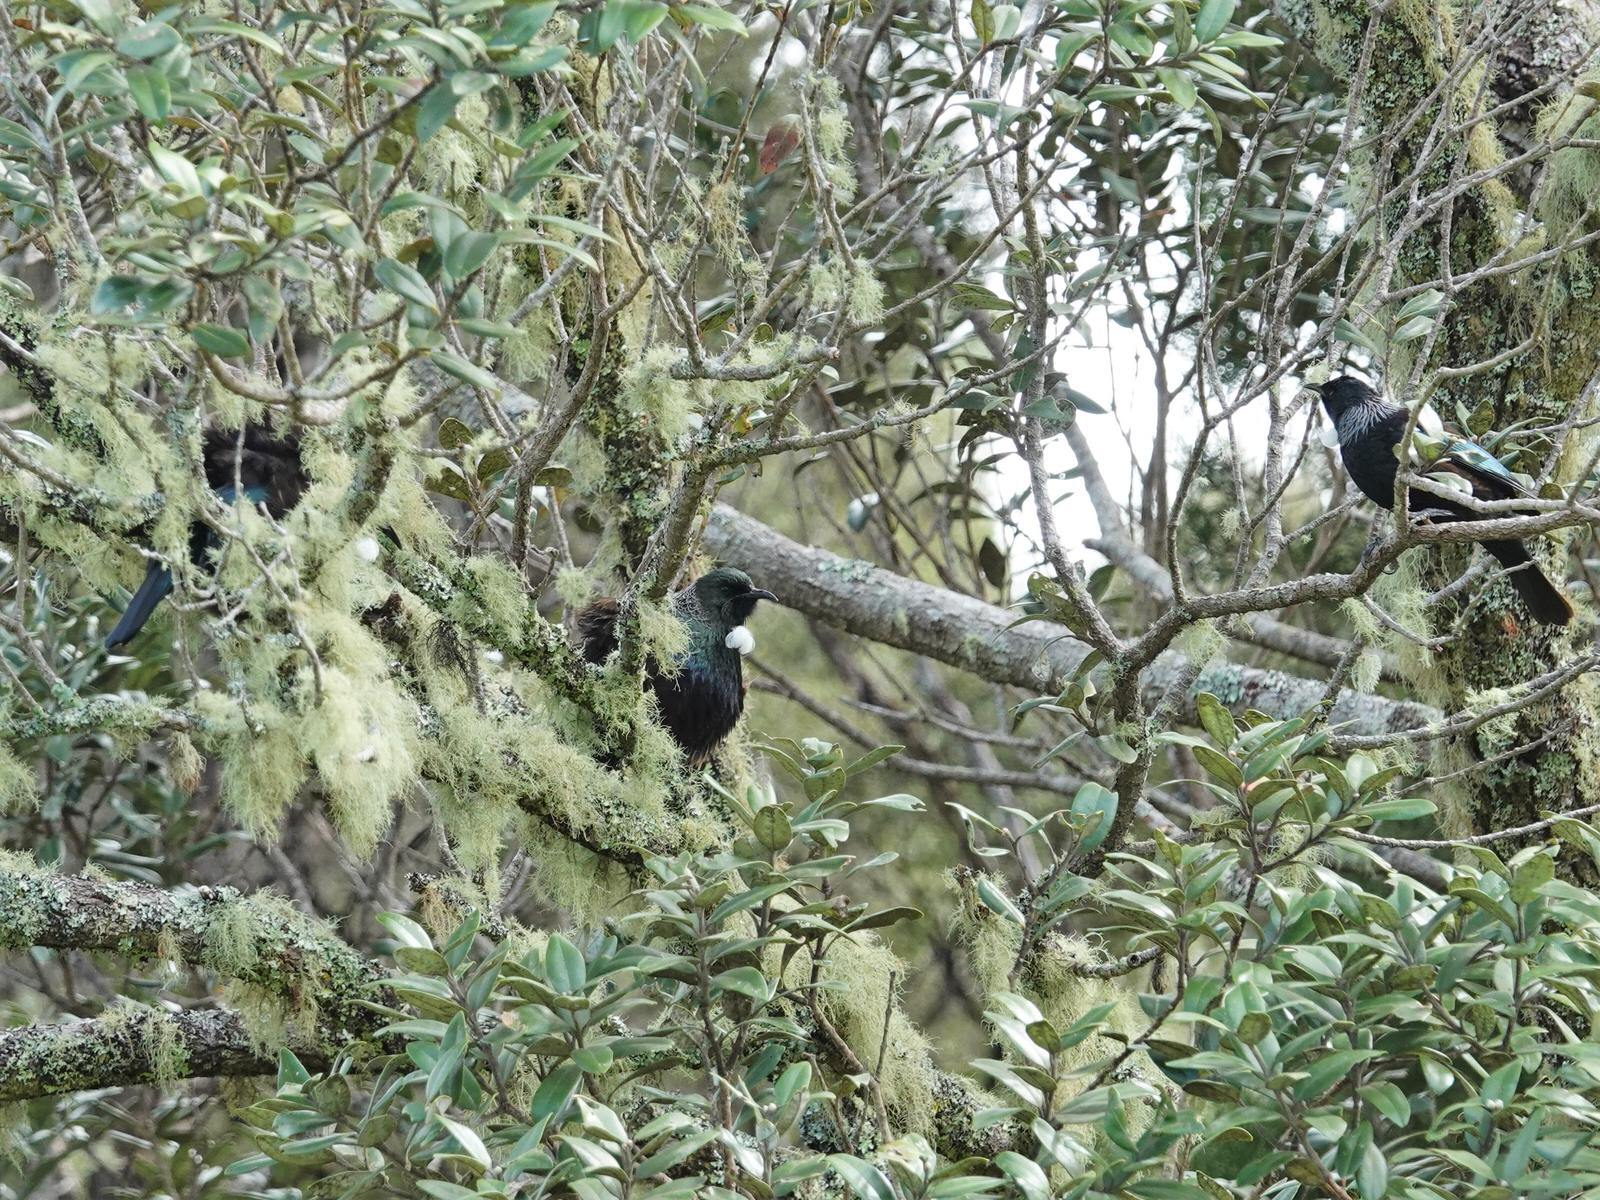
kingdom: Animalia
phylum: Chordata
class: Aves
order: Passeriformes
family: Meliphagidae
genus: Prosthemadera
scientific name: Prosthemadera novaeseelandiae
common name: Tui
